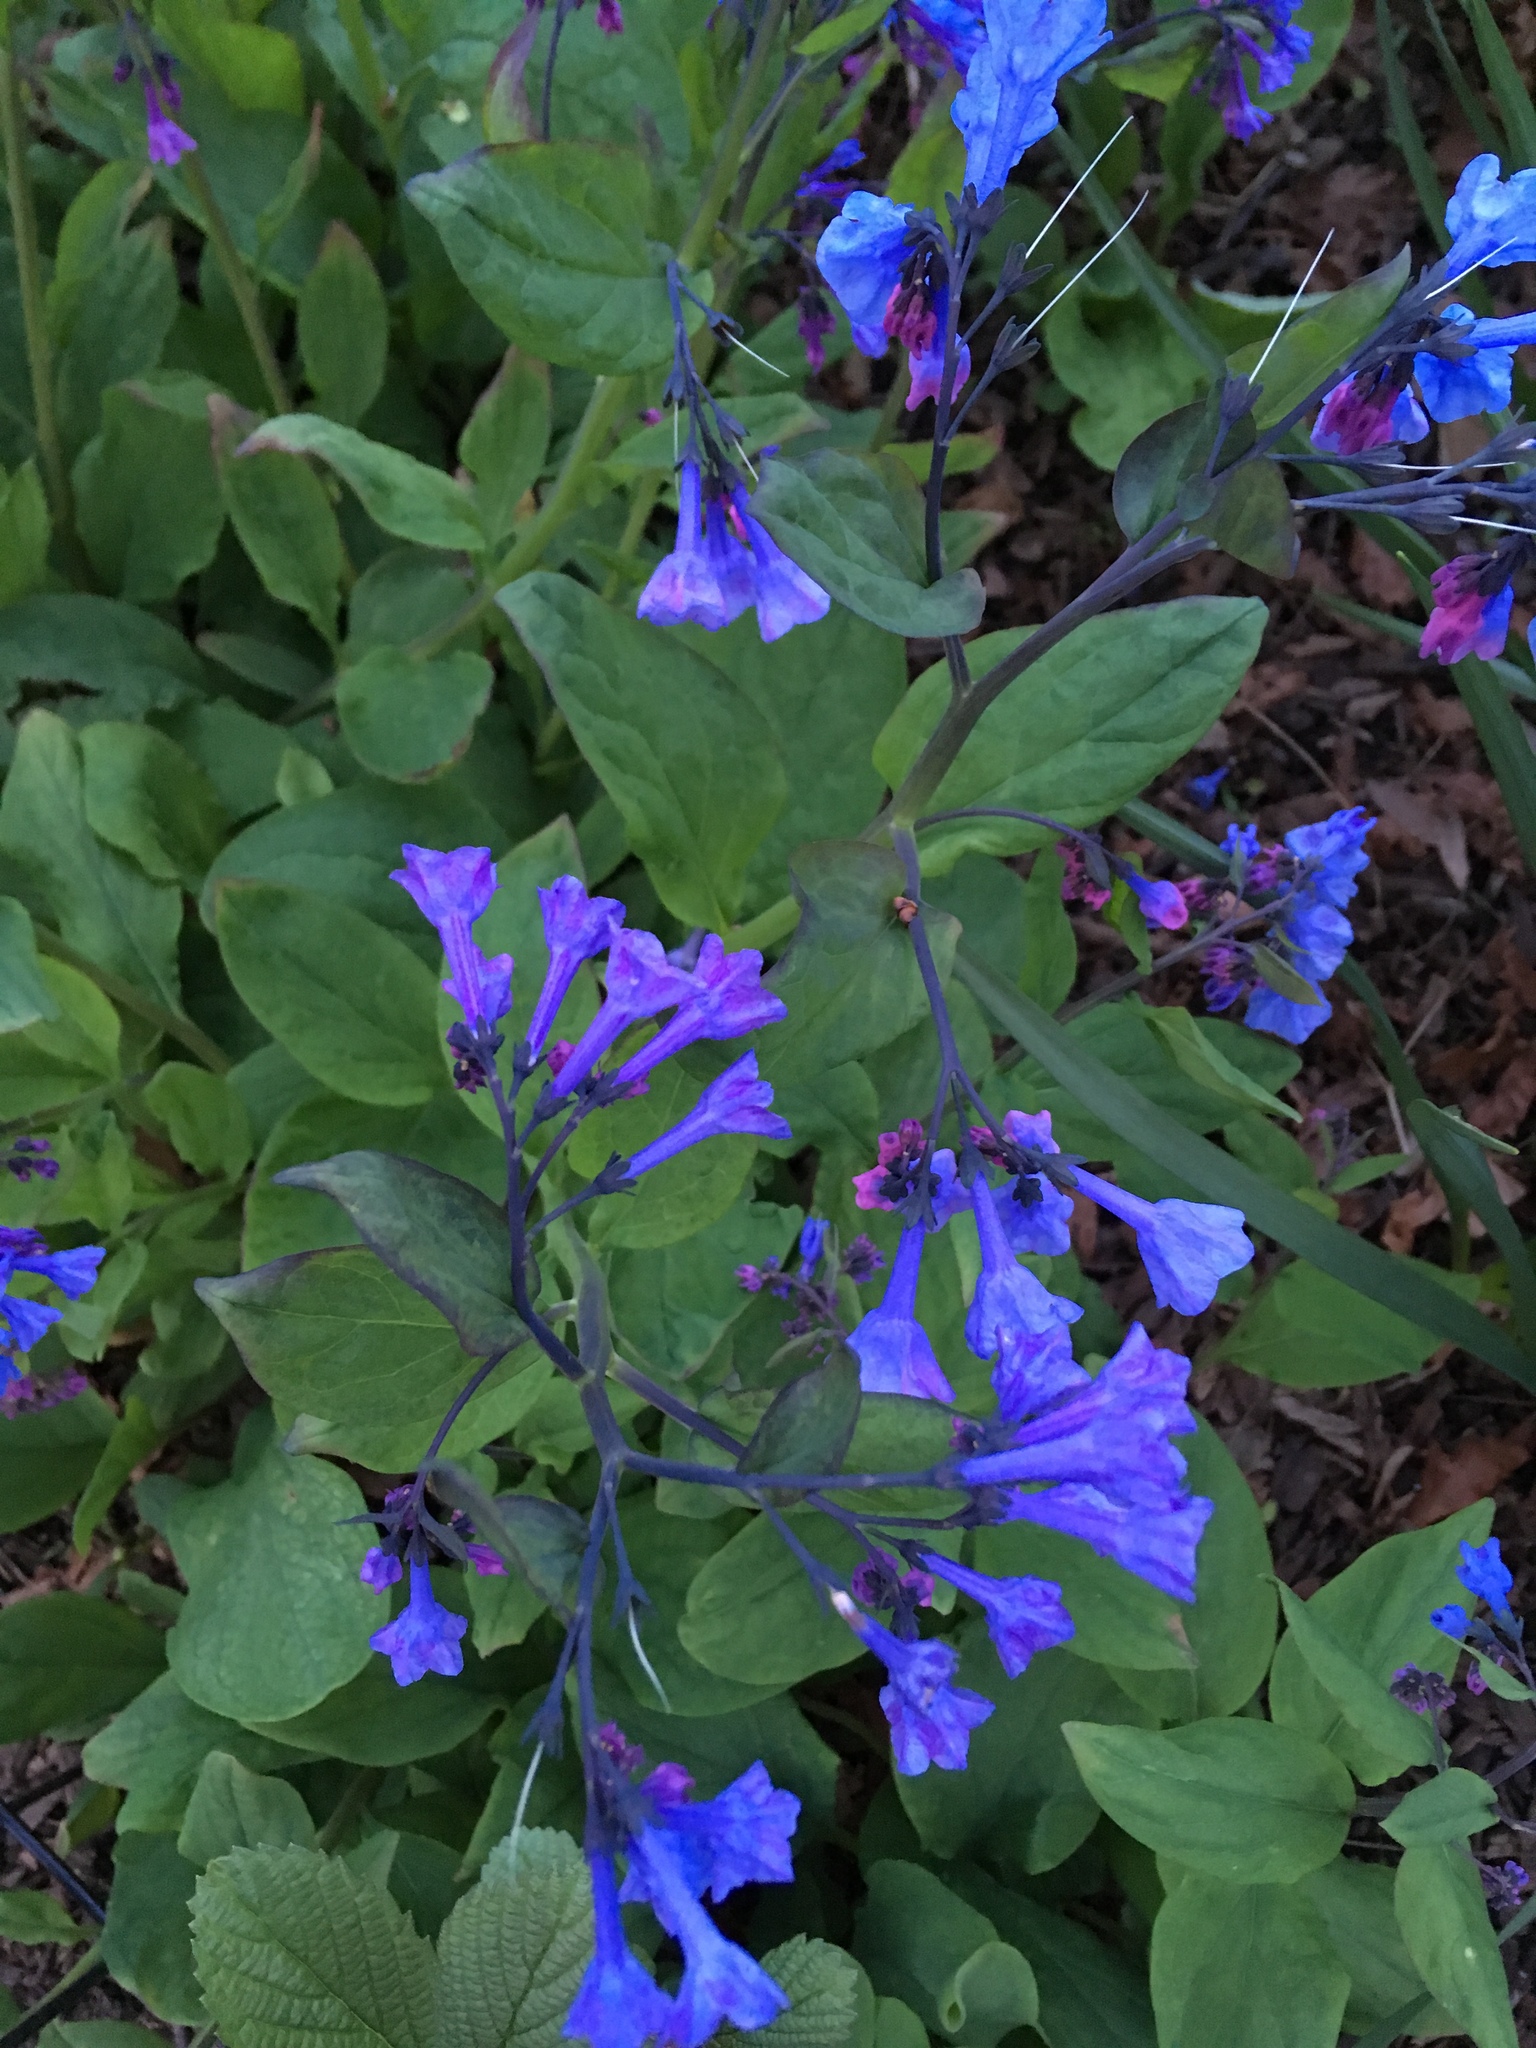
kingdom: Plantae
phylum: Tracheophyta
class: Magnoliopsida
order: Boraginales
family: Boraginaceae
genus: Mertensia
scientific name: Mertensia virginica
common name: Virginia bluebells
